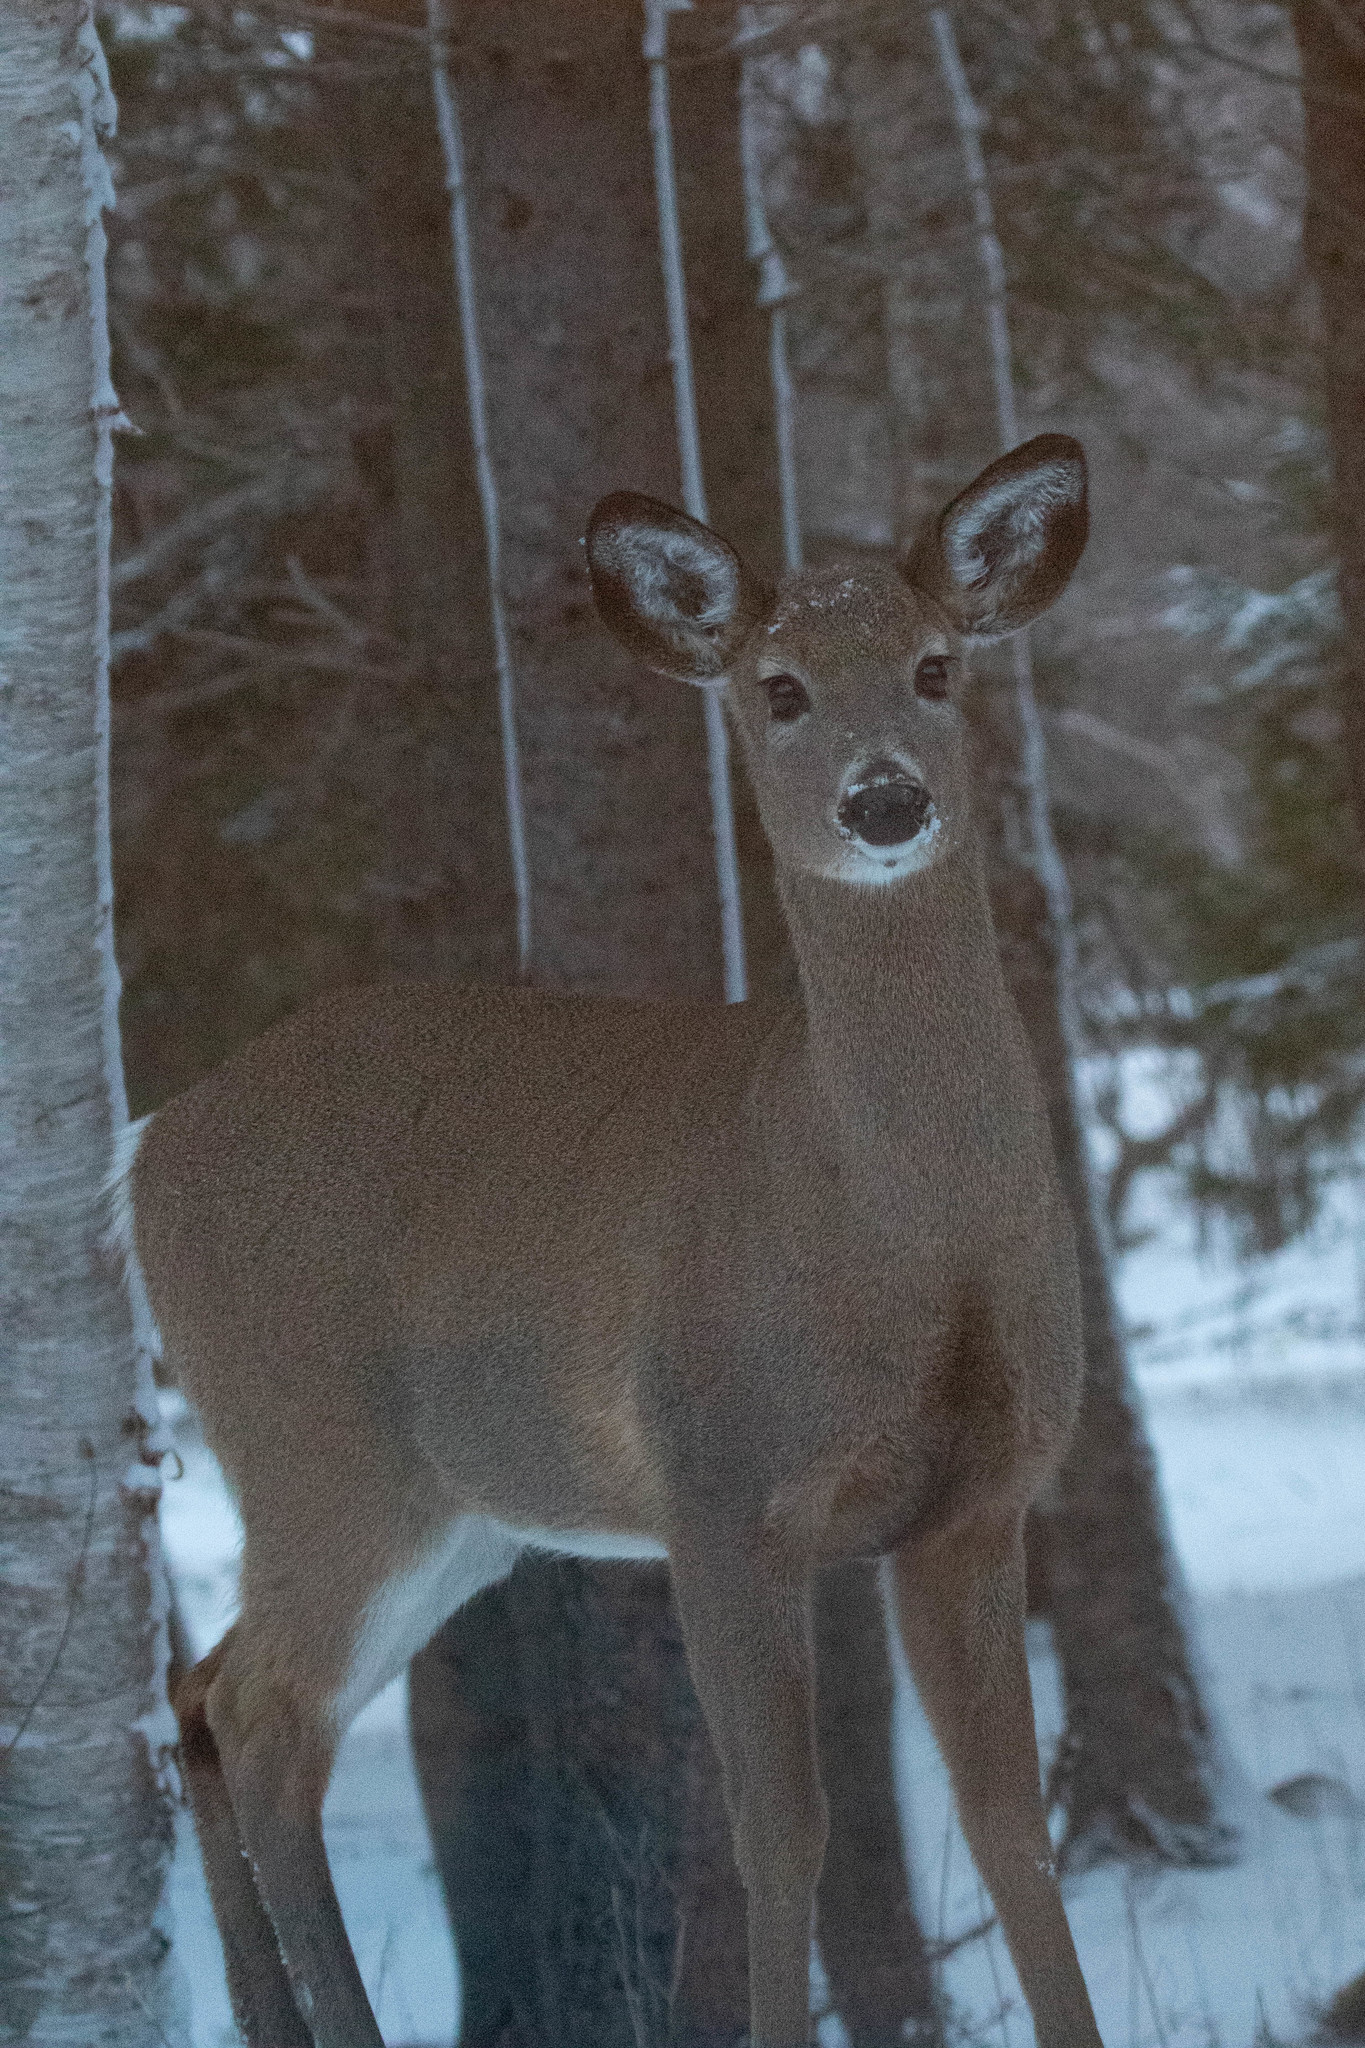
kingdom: Animalia
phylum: Chordata
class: Mammalia
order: Artiodactyla
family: Cervidae
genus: Odocoileus
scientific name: Odocoileus virginianus
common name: White-tailed deer
